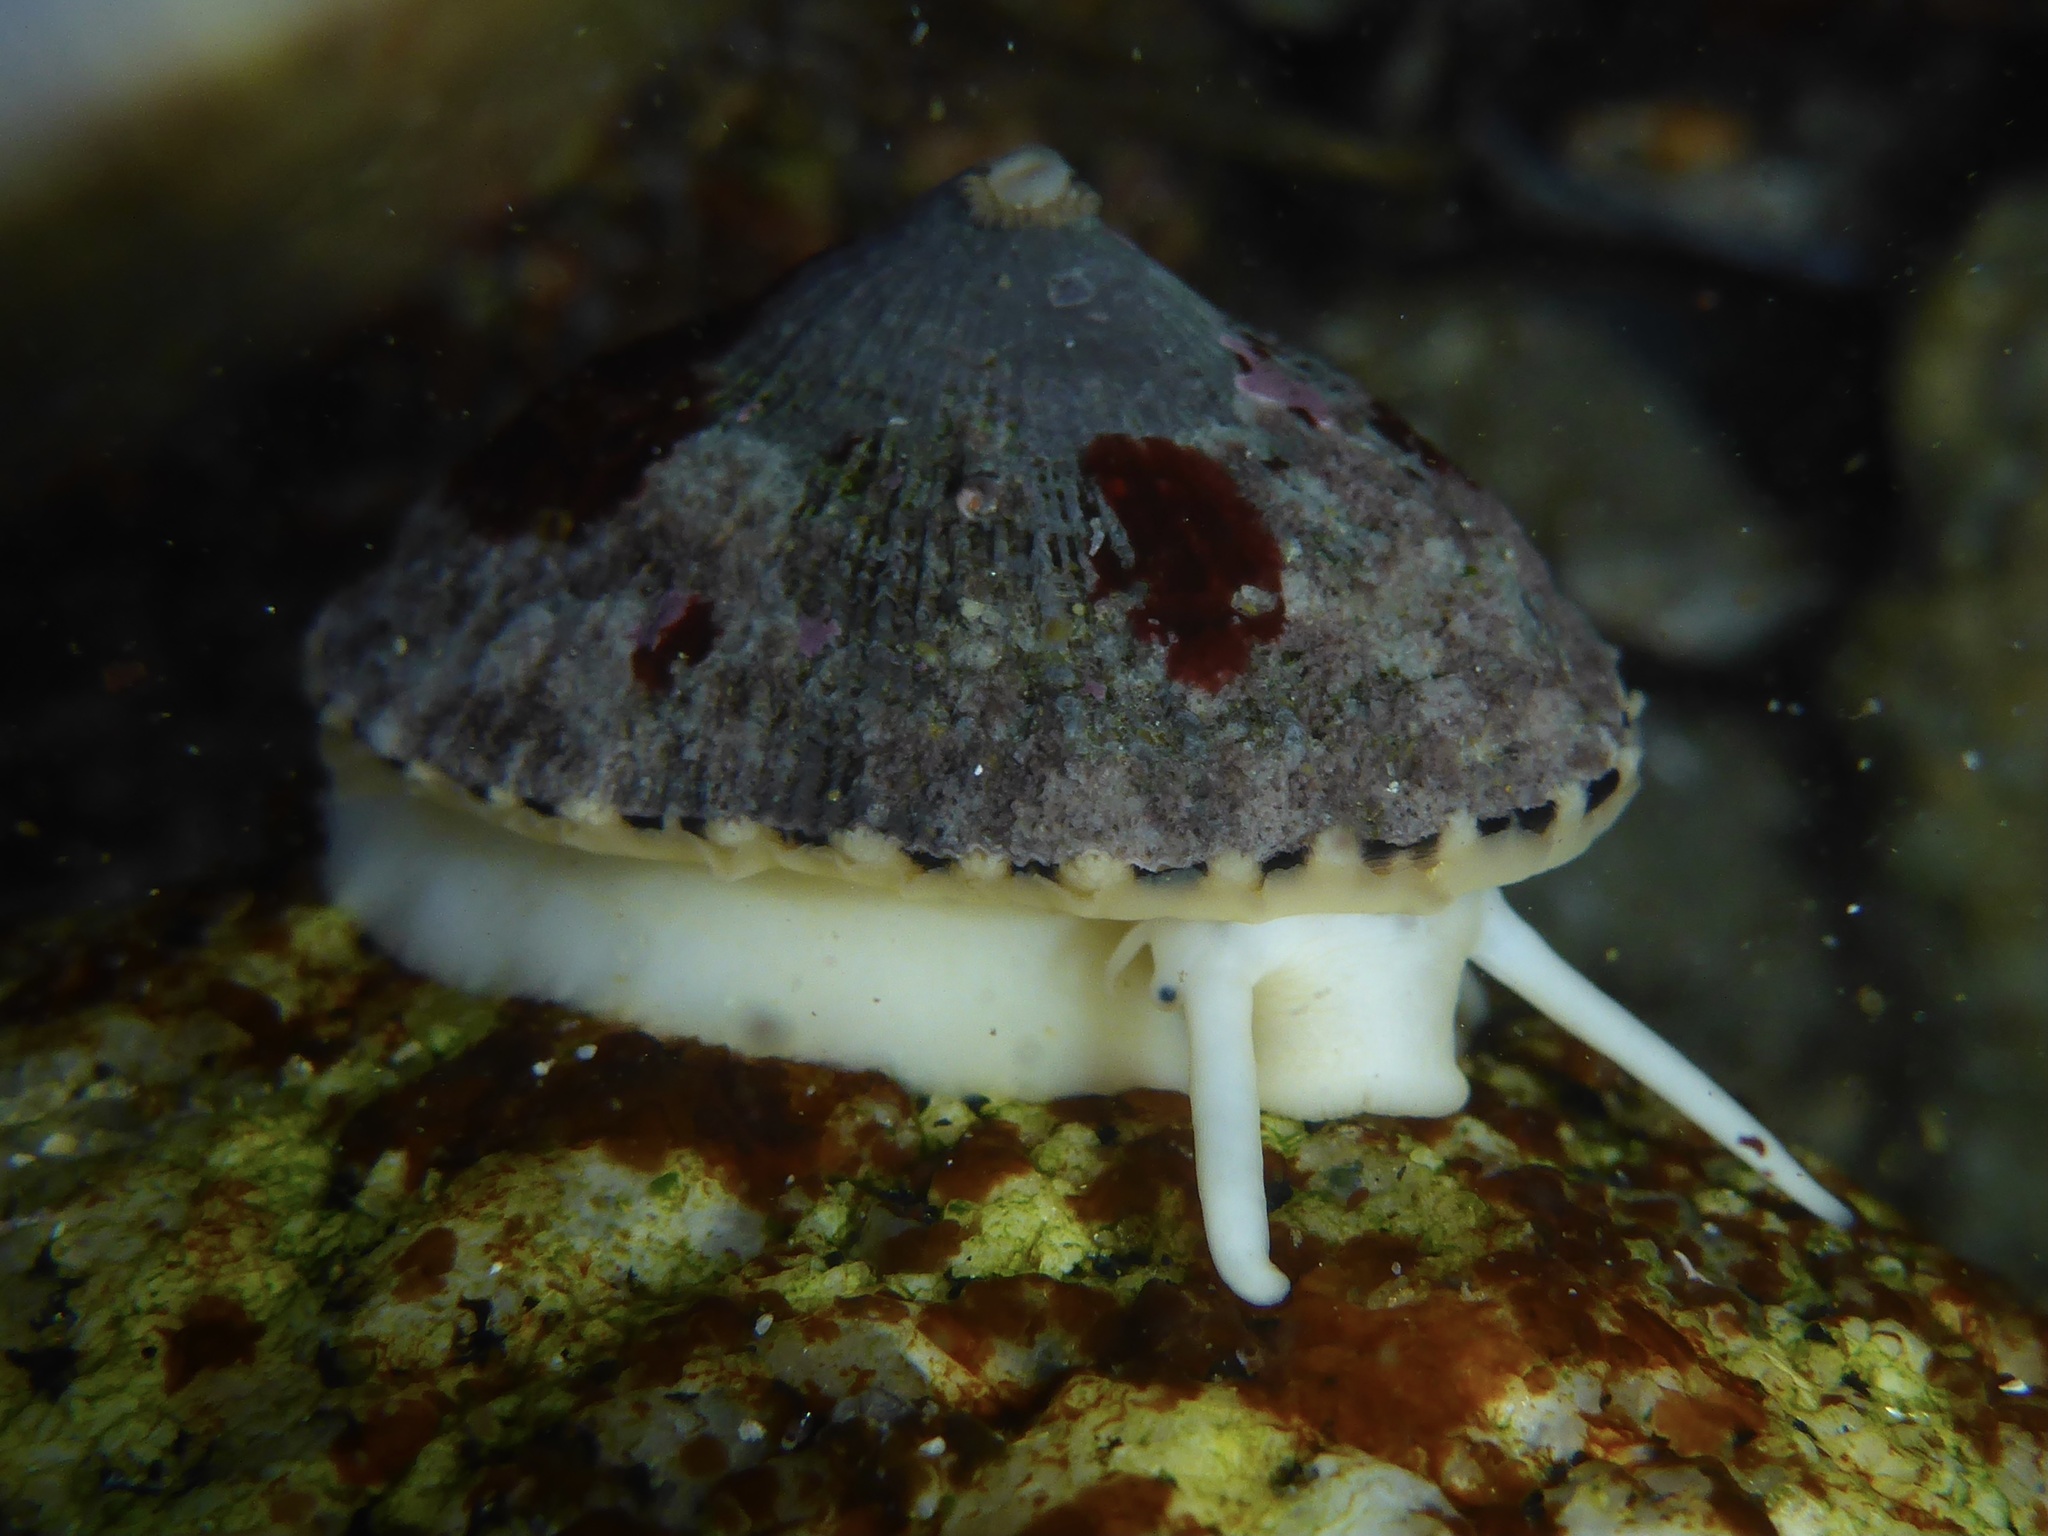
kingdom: Animalia
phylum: Mollusca
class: Gastropoda
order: Lepetellida
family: Fissurellidae
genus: Diodora
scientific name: Diodora aspera
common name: Rough keyhole limpet
